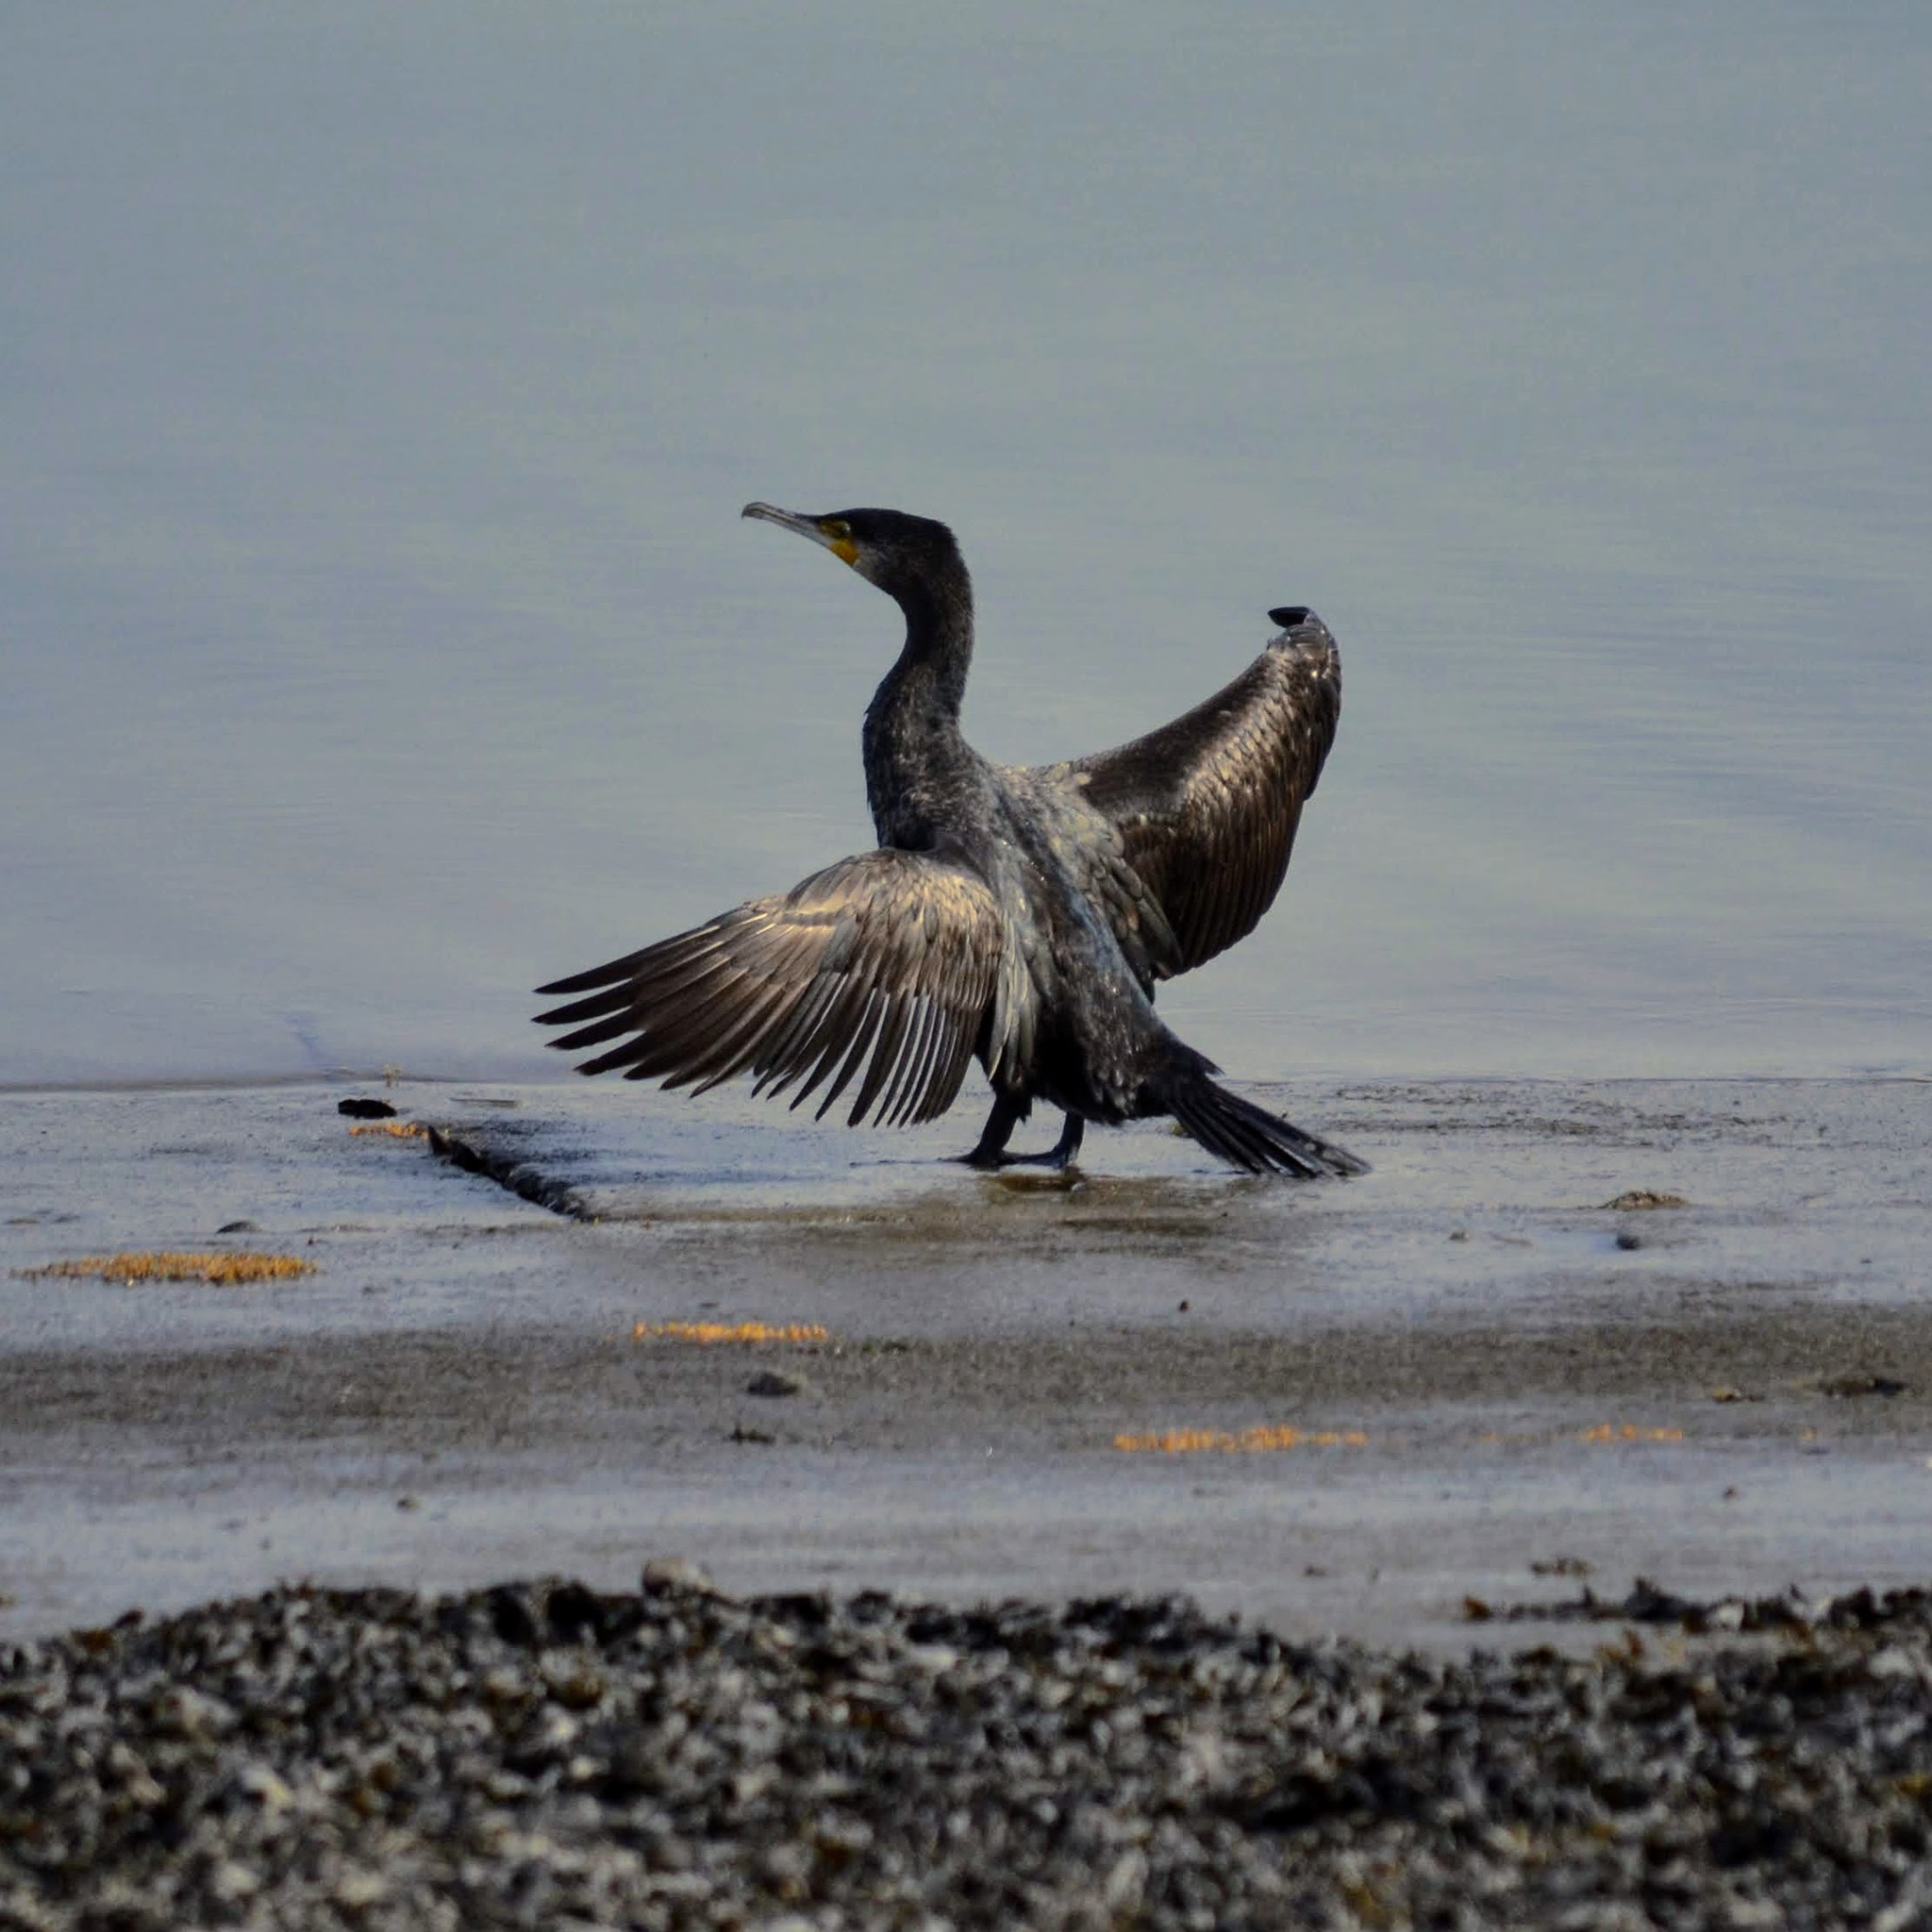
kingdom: Animalia
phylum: Chordata
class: Aves
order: Suliformes
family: Phalacrocoracidae
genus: Phalacrocorax
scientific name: Phalacrocorax carbo
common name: Great cormorant
